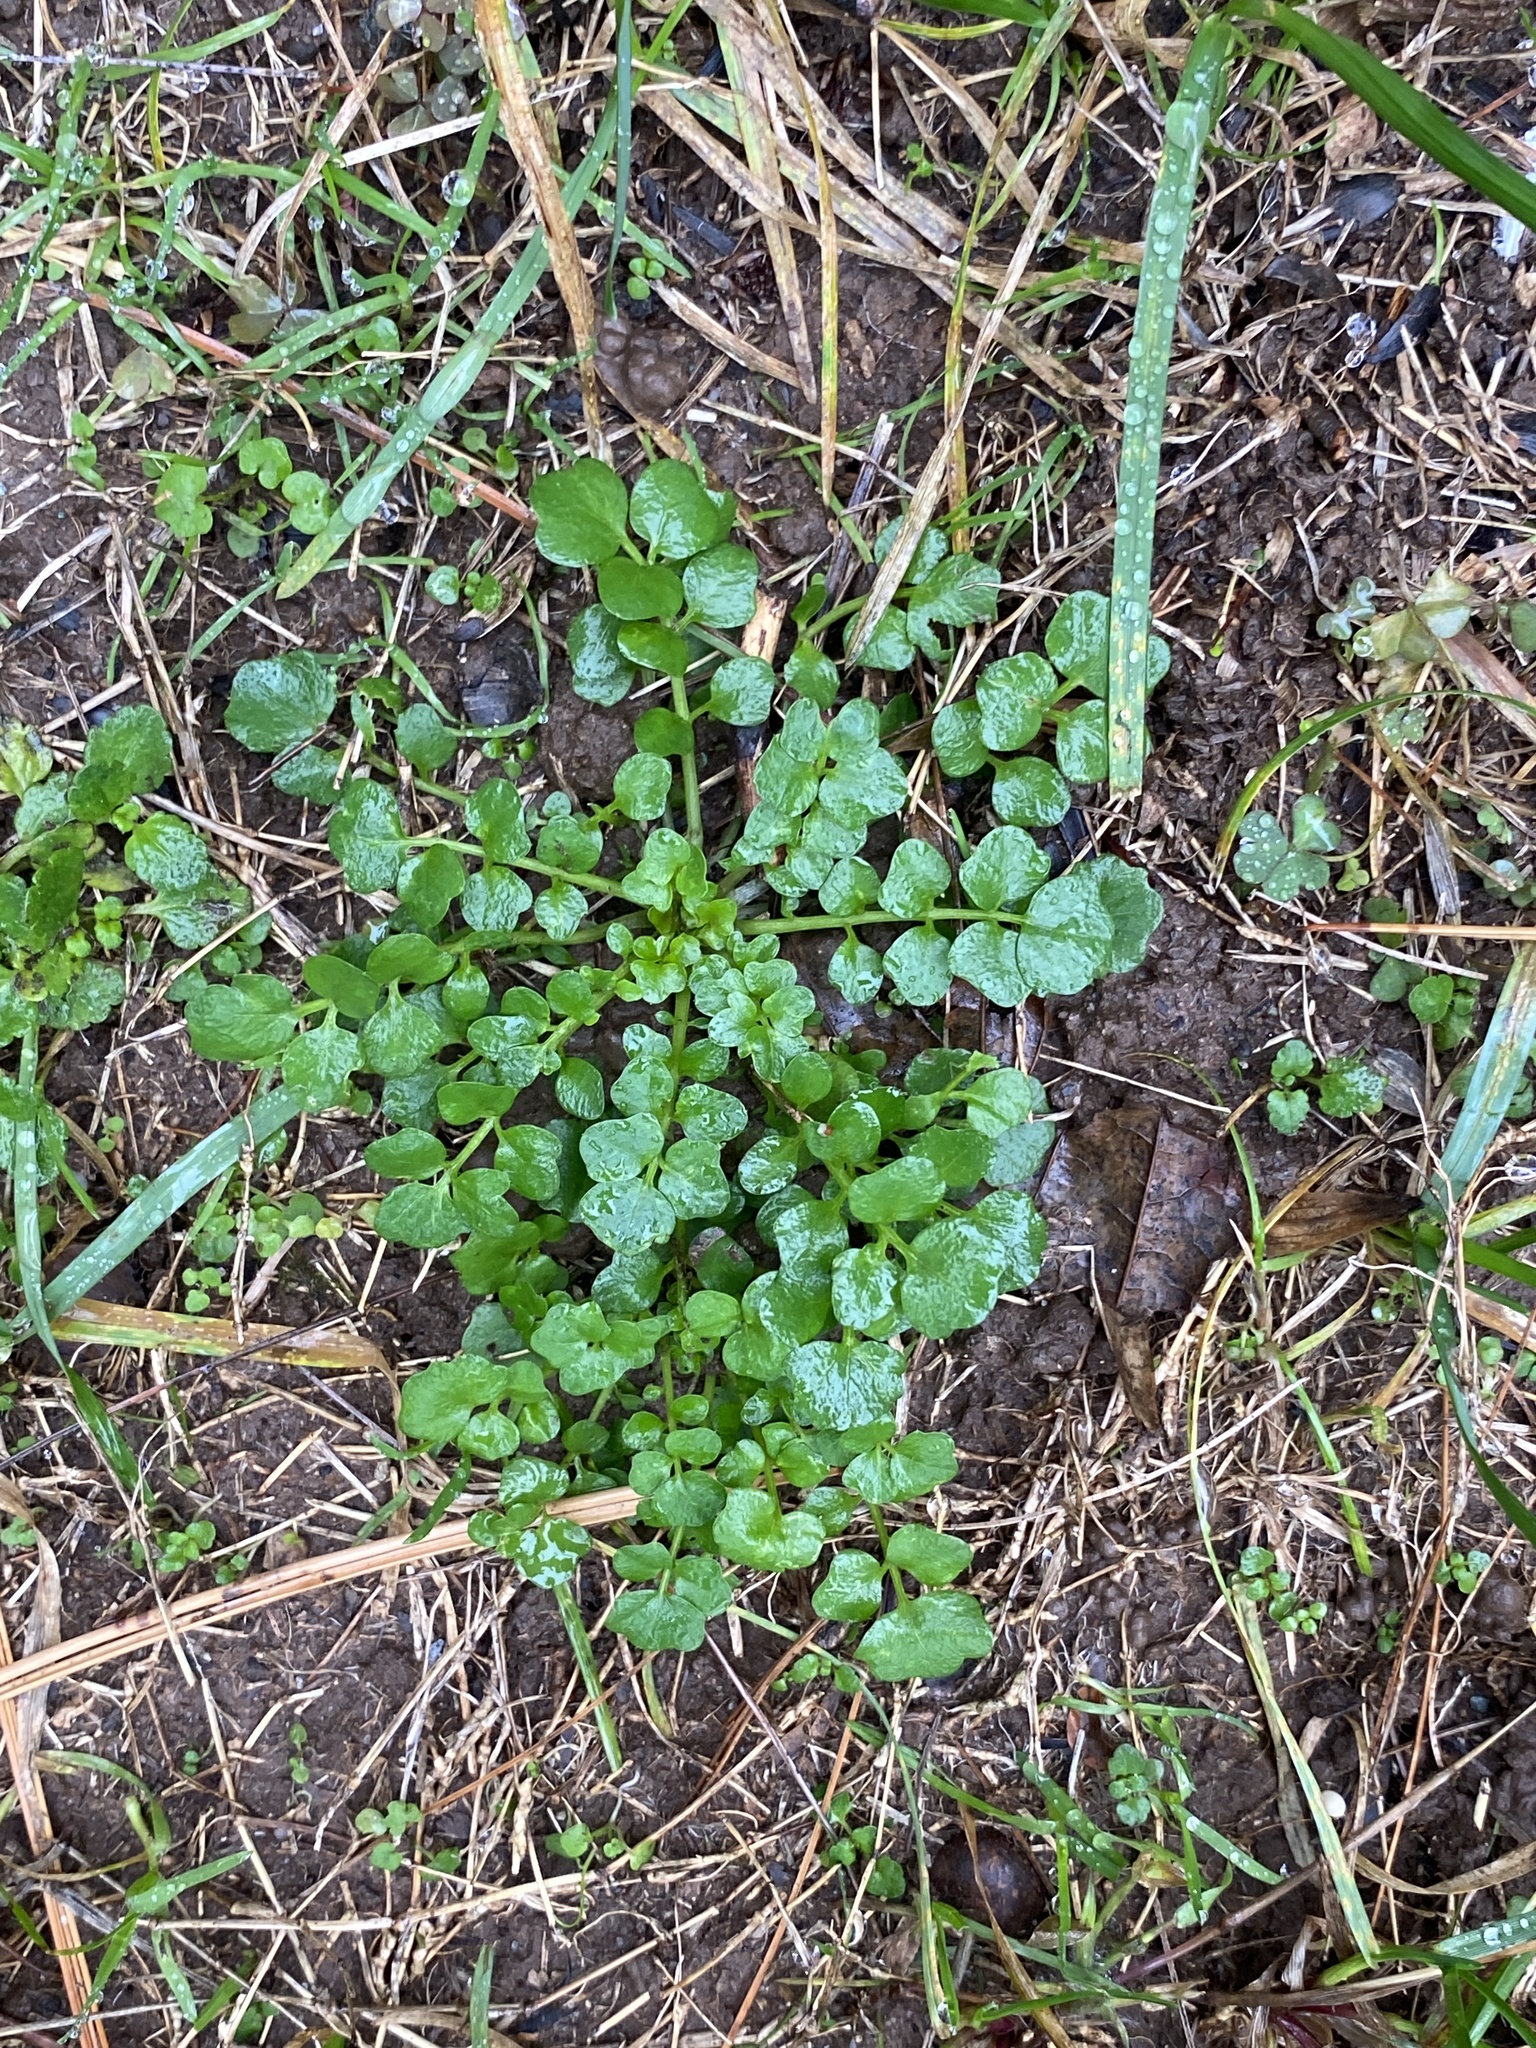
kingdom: Plantae
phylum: Tracheophyta
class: Magnoliopsida
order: Brassicales
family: Brassicaceae
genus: Cardamine
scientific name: Cardamine hirsuta
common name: Hairy bittercress
